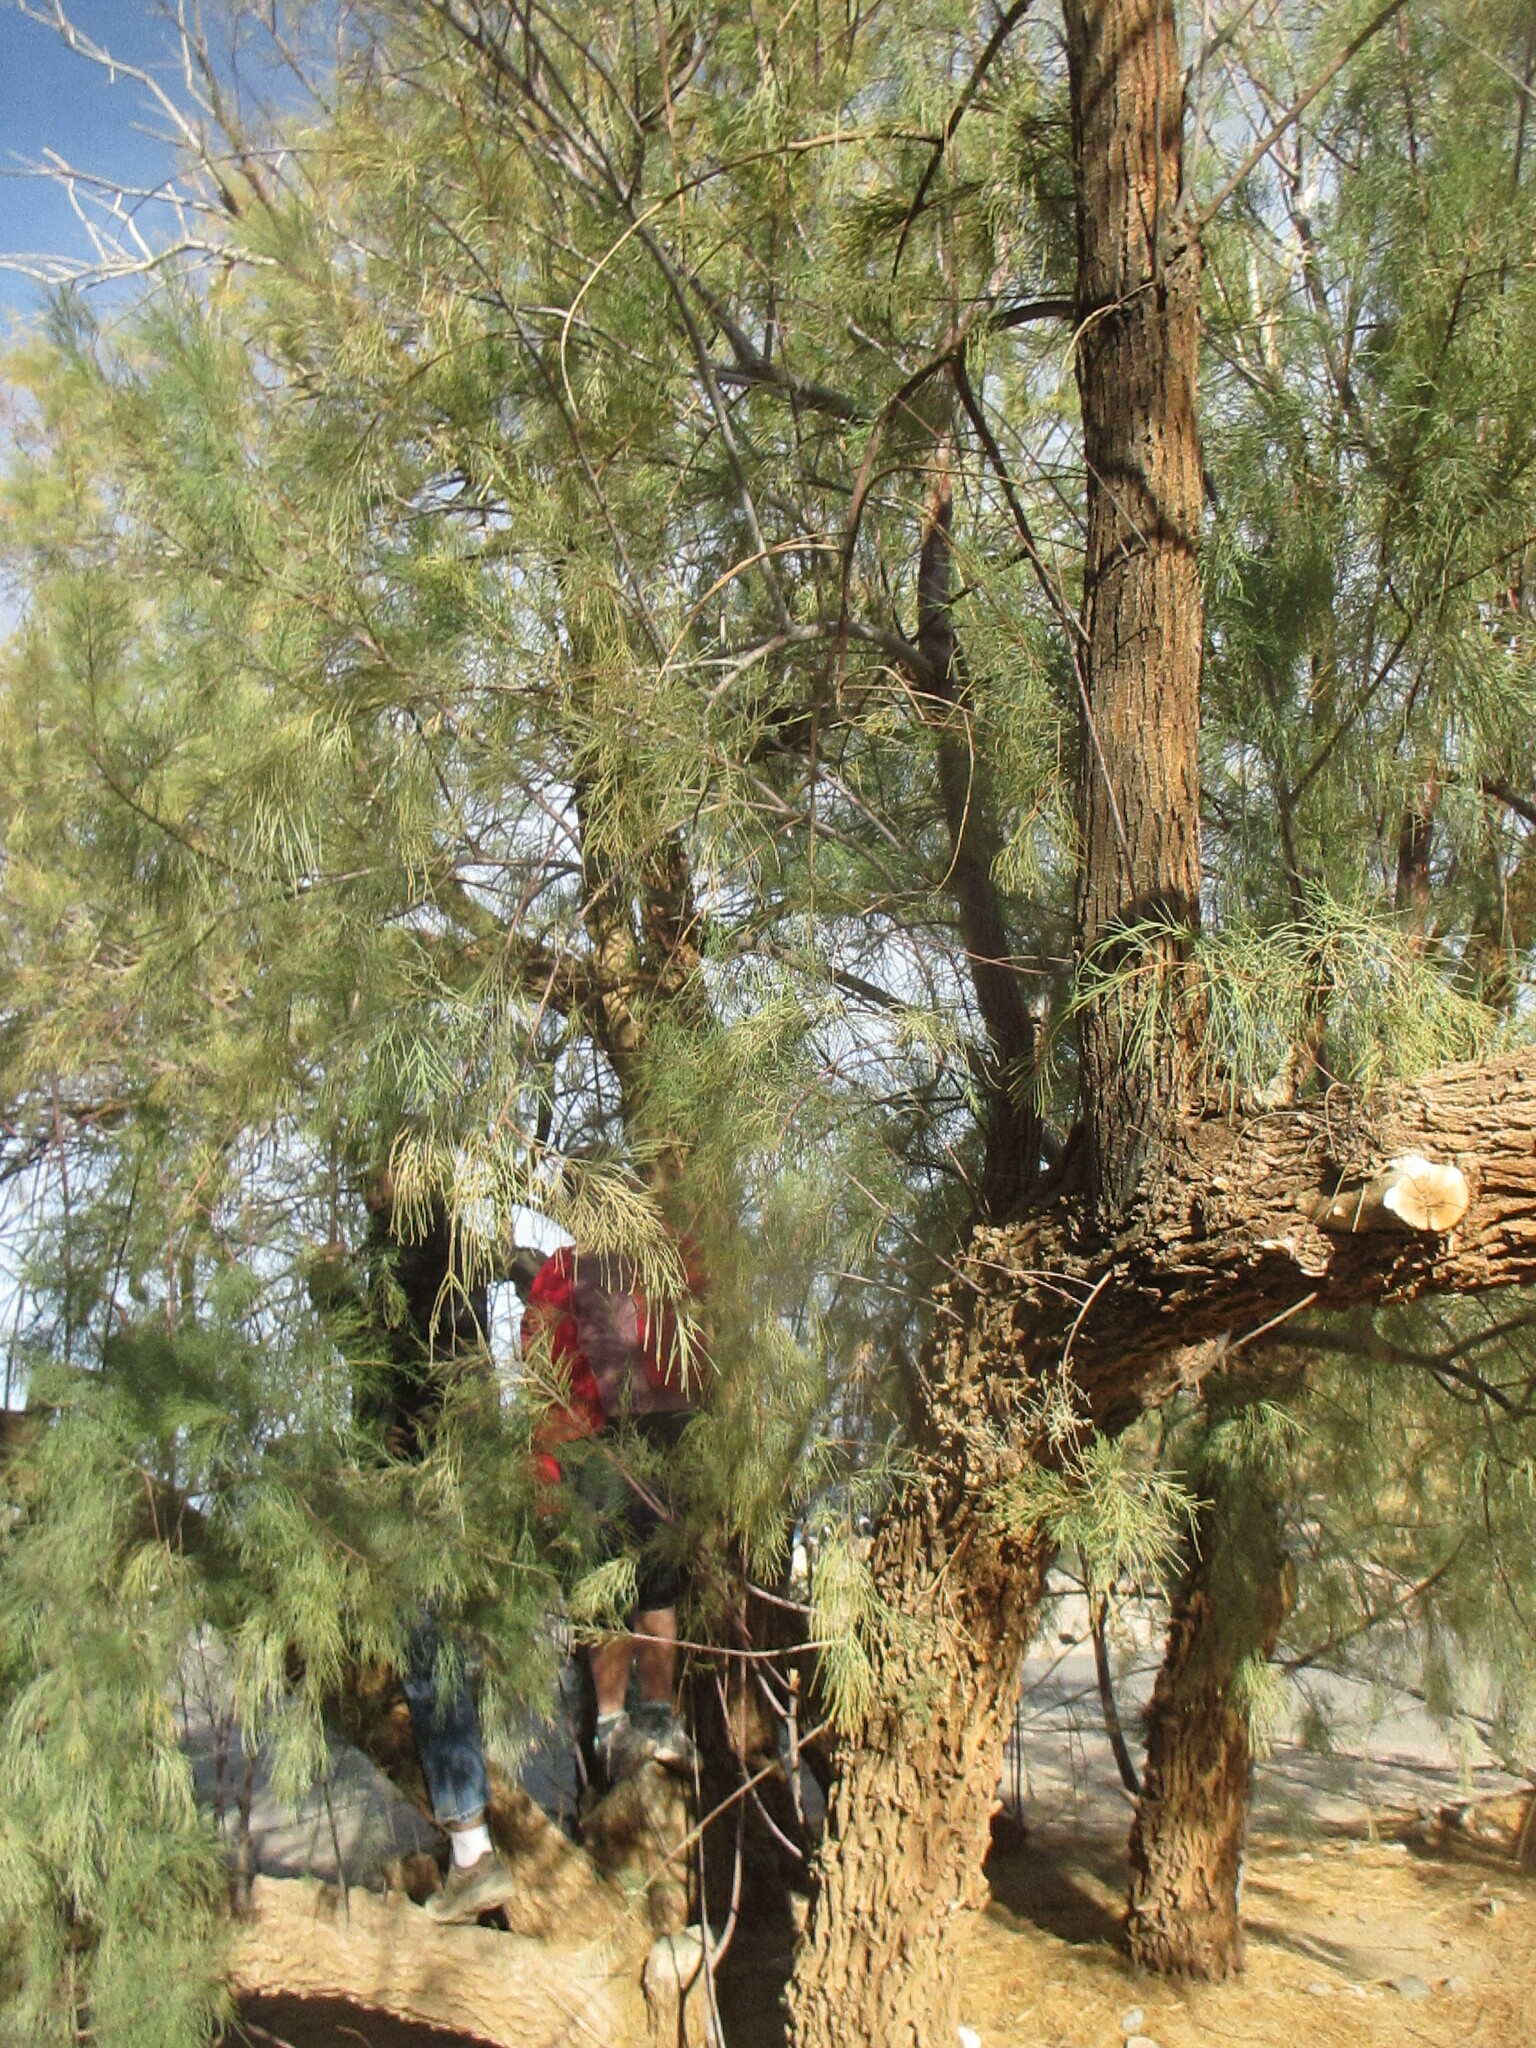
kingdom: Plantae
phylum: Tracheophyta
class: Magnoliopsida
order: Caryophyllales
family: Tamaricaceae
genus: Tamarix
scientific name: Tamarix aphylla
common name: Athel tamarisk
